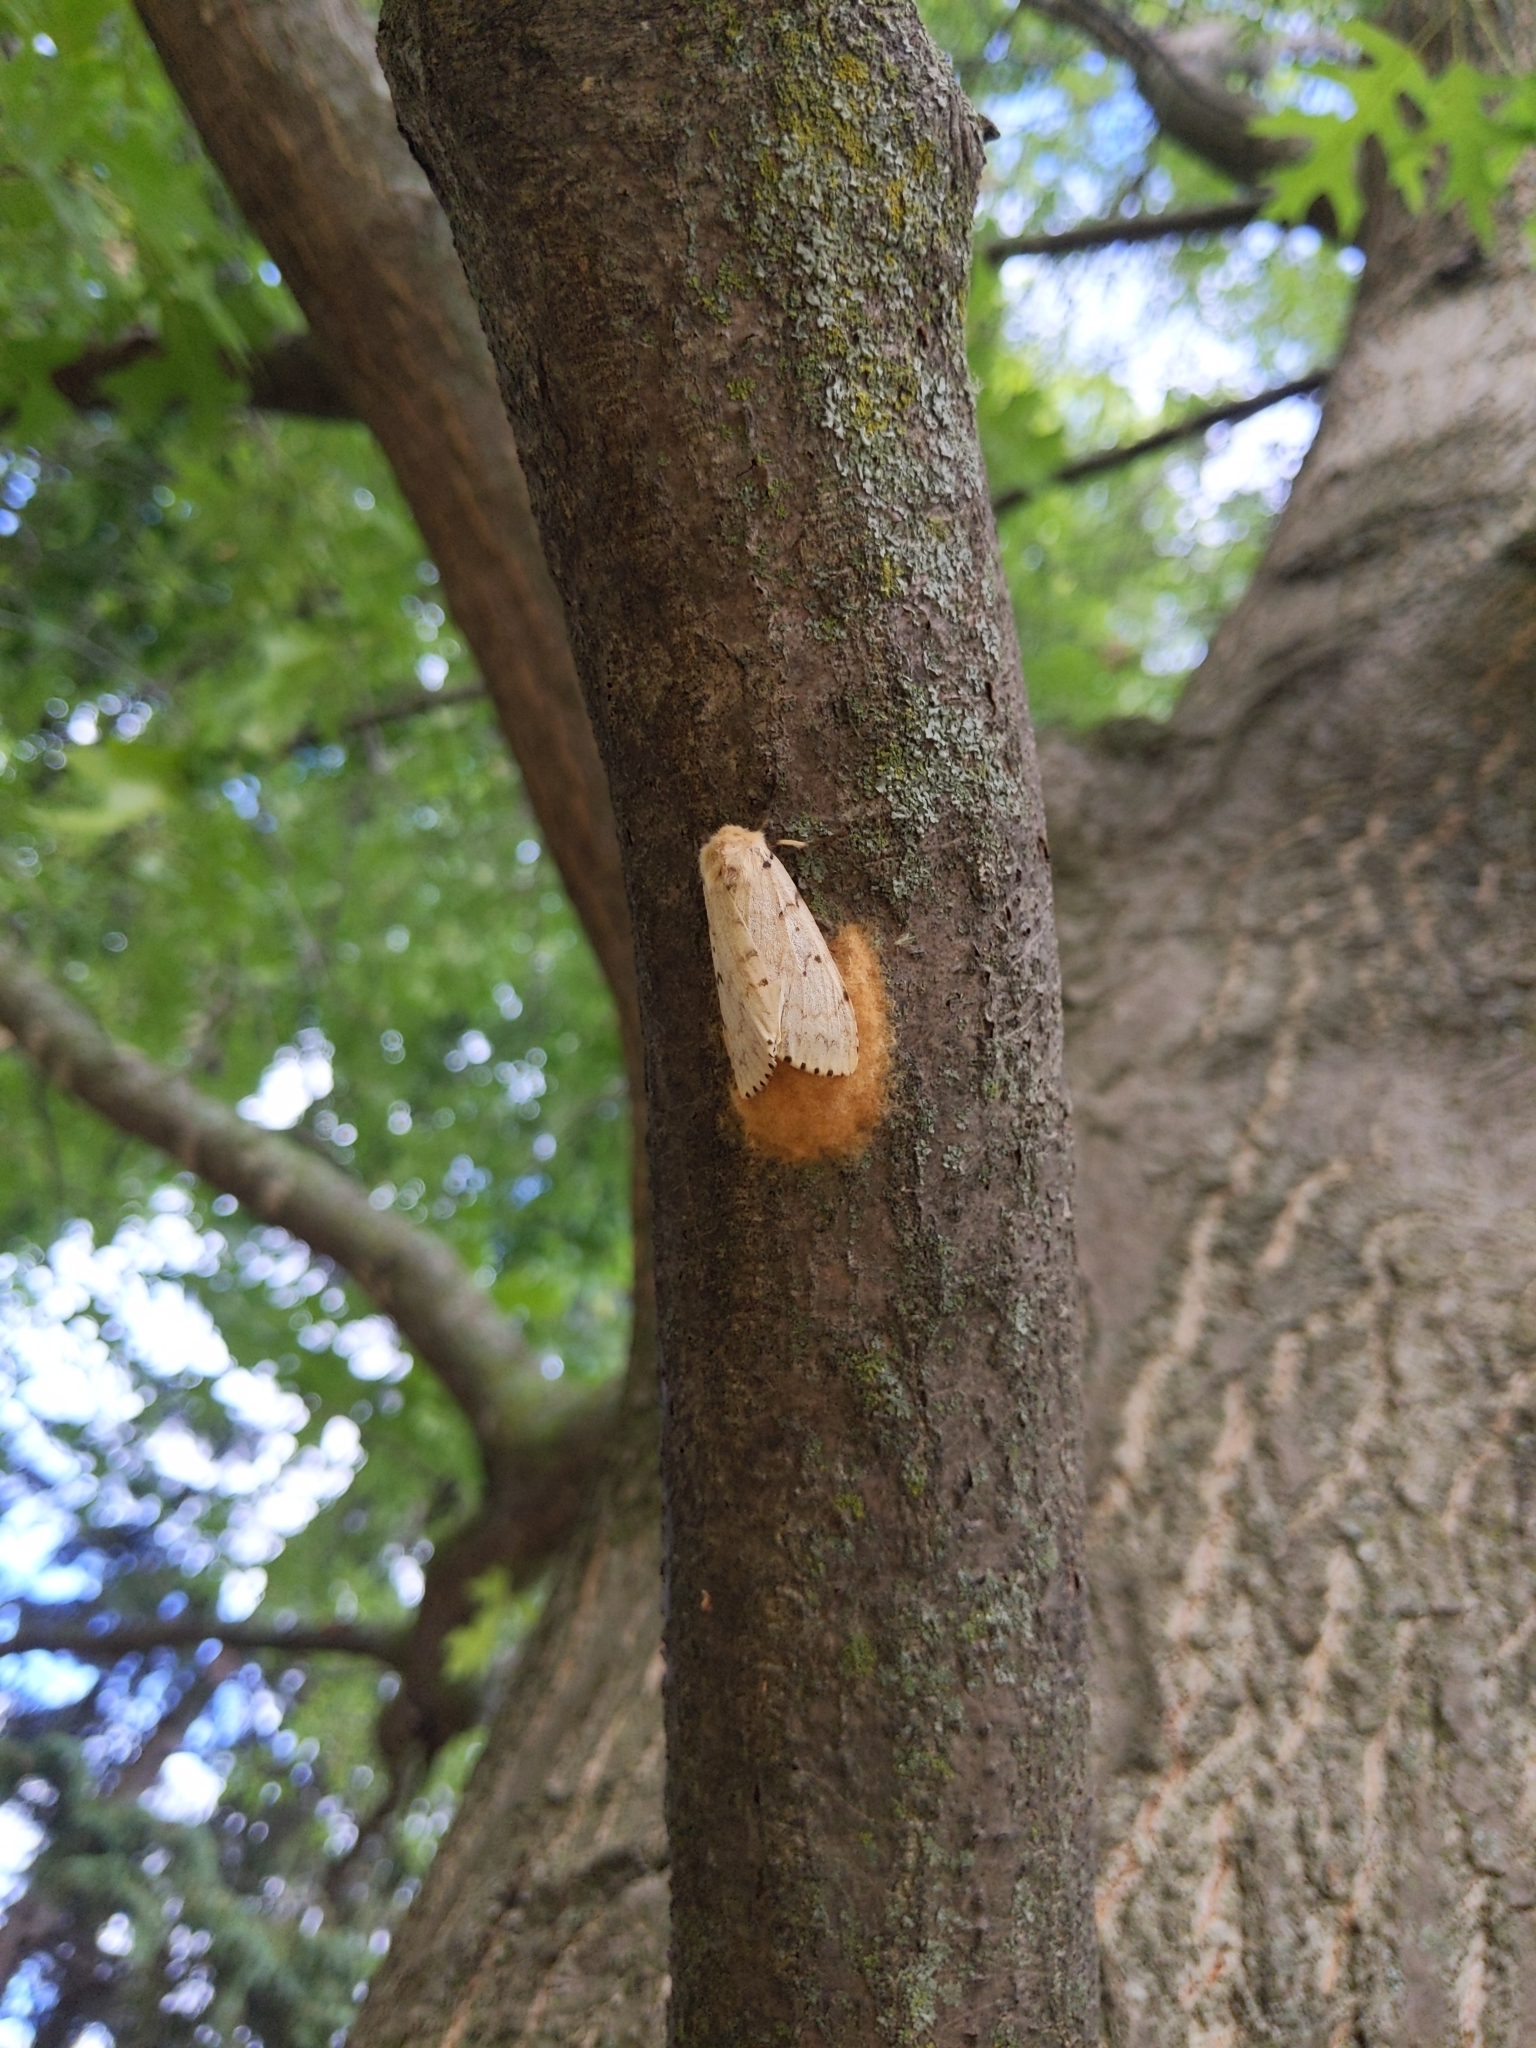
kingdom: Animalia
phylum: Arthropoda
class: Insecta
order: Lepidoptera
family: Erebidae
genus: Lymantria
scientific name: Lymantria dispar
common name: Gypsy moth
